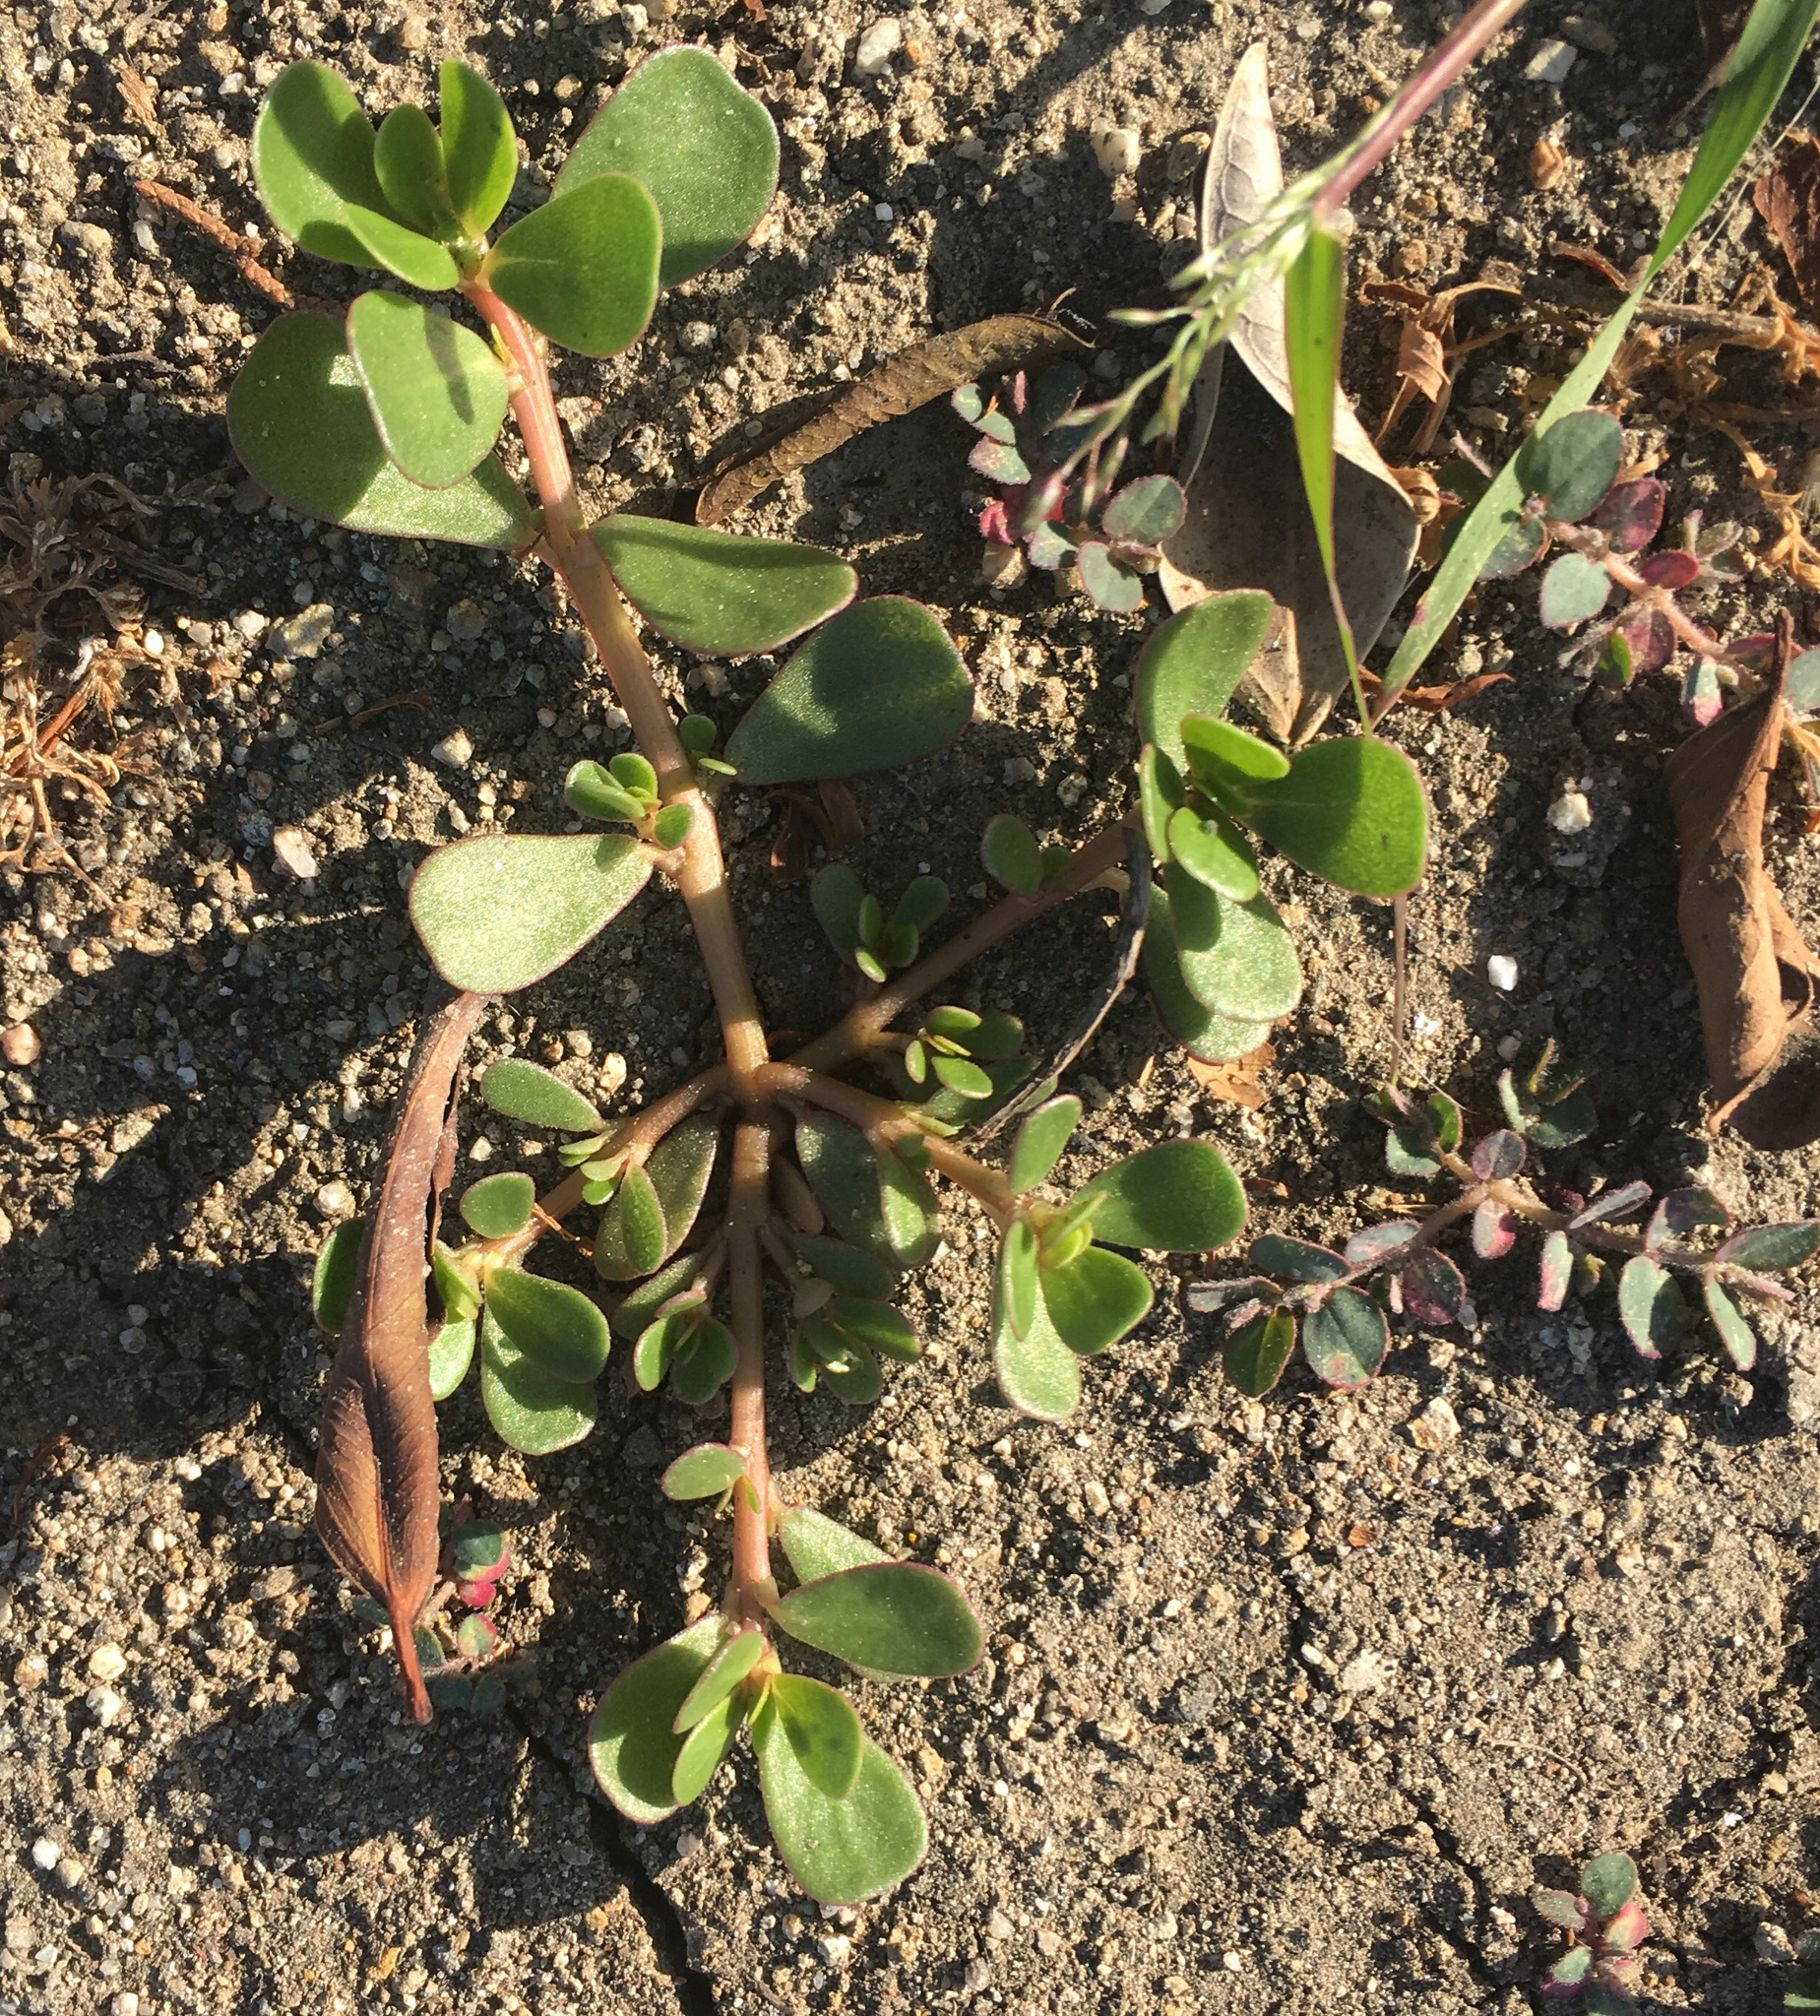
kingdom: Plantae
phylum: Tracheophyta
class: Magnoliopsida
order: Caryophyllales
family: Portulacaceae
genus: Portulaca
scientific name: Portulaca oleracea
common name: Common purslane
